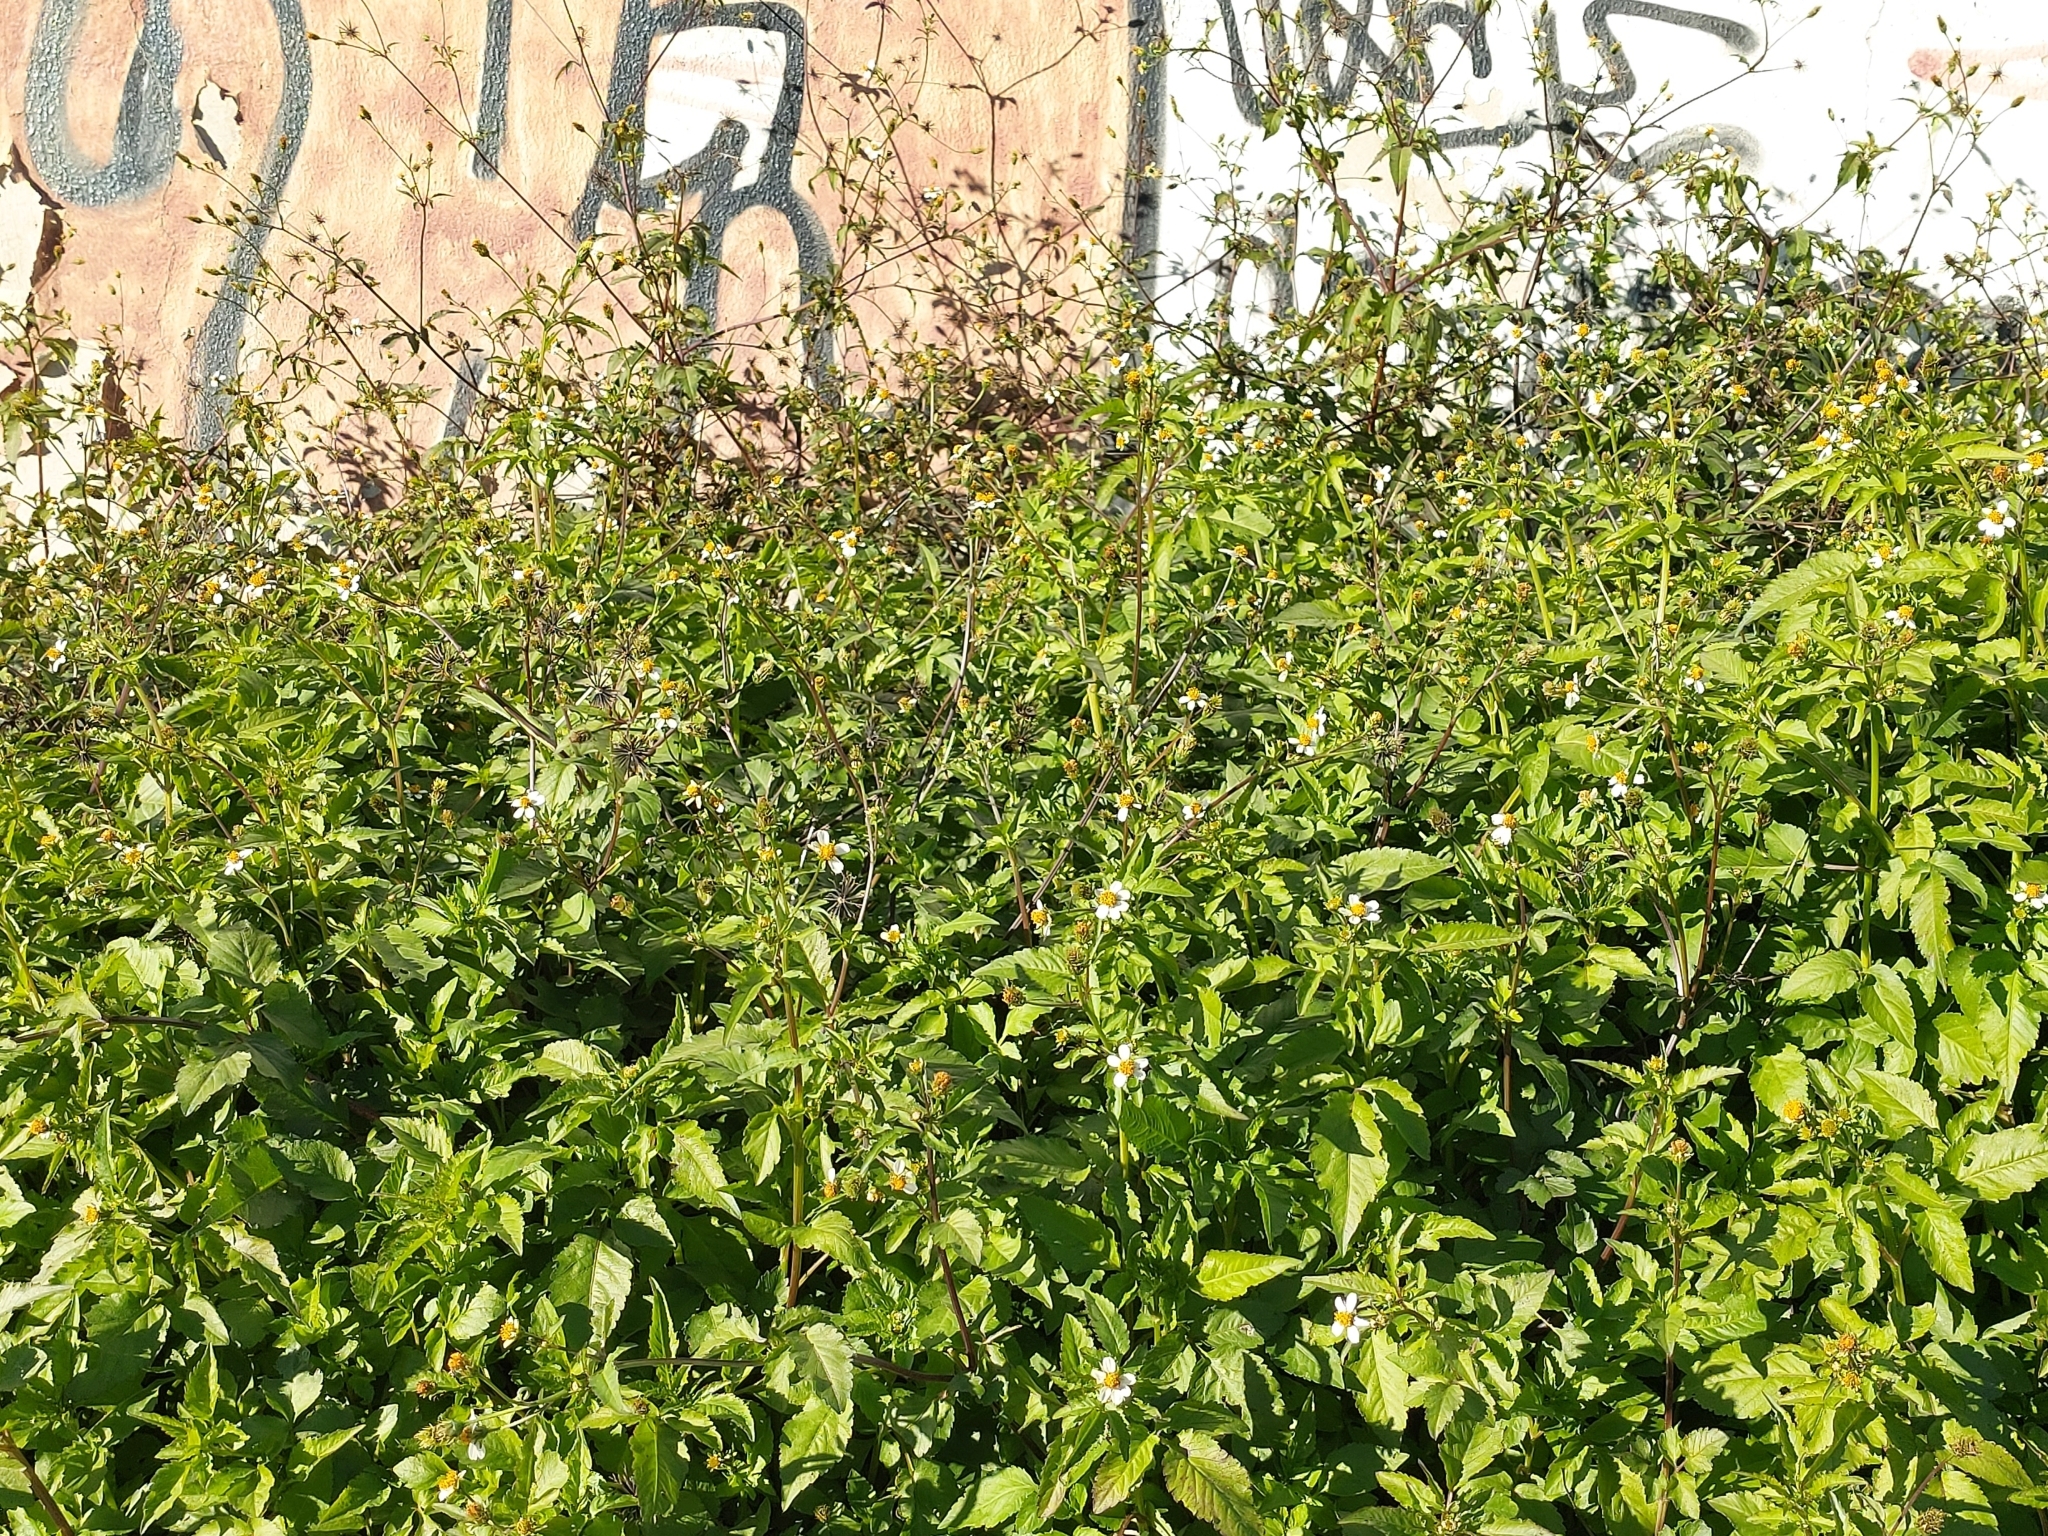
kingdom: Plantae
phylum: Tracheophyta
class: Magnoliopsida
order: Asterales
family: Asteraceae
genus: Bidens
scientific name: Bidens pilosa
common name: Black-jack
